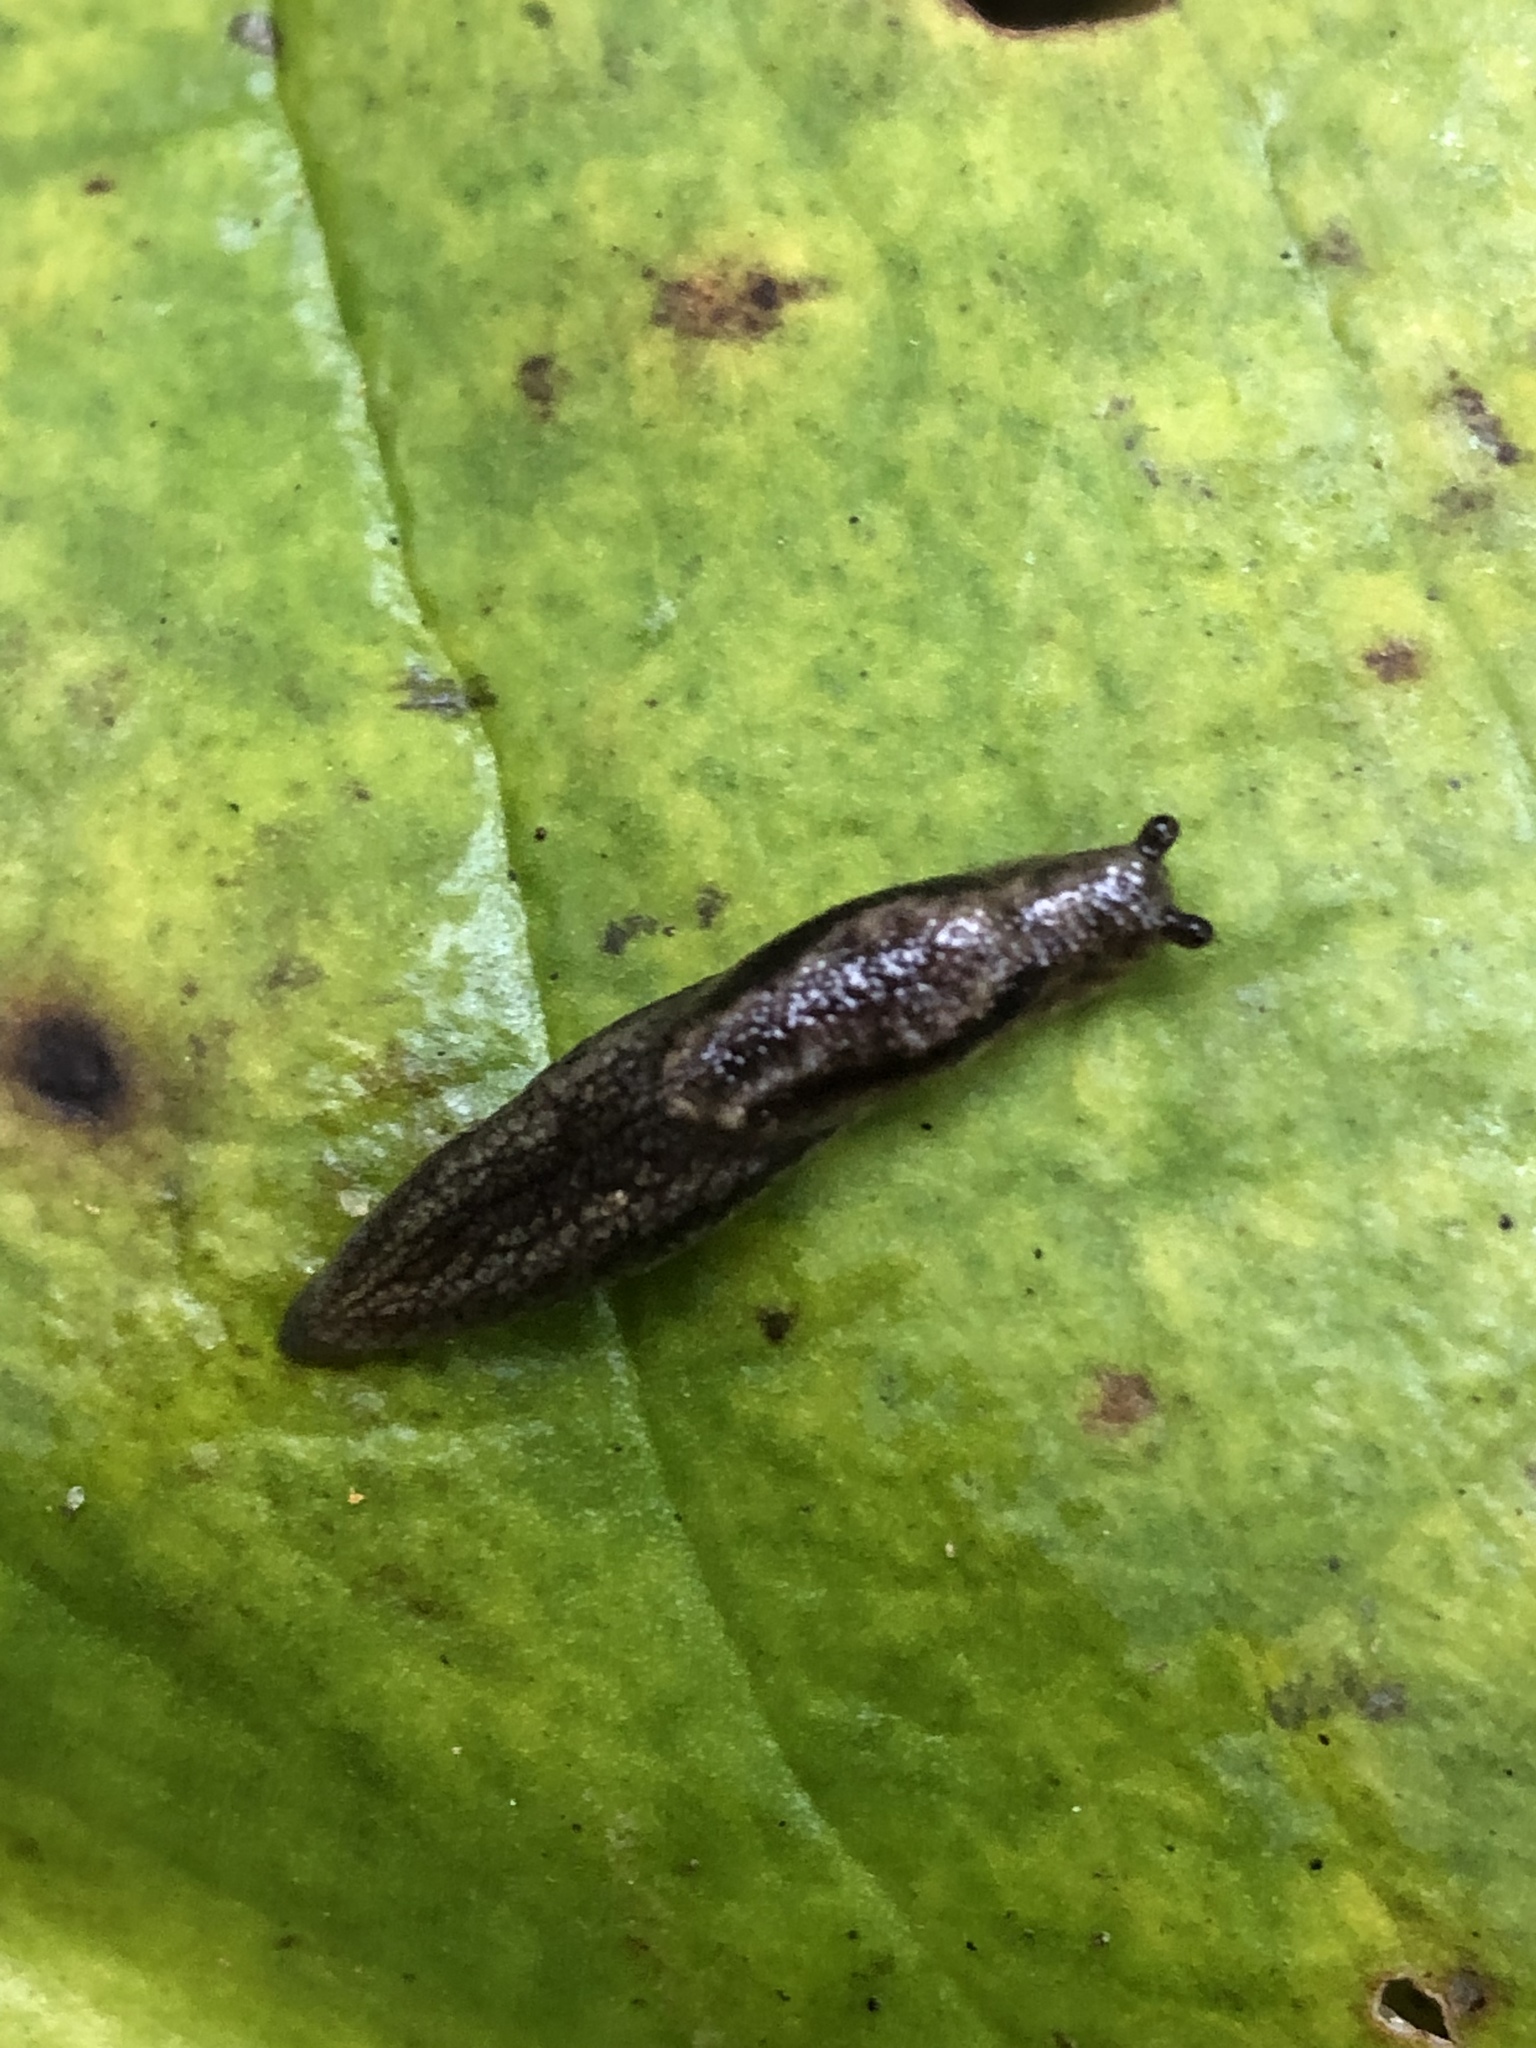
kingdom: Animalia
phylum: Mollusca
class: Gastropoda
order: Stylommatophora
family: Ariolimacidae
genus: Prophysaon
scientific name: Prophysaon vanattae
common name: Scarletback taildropper
